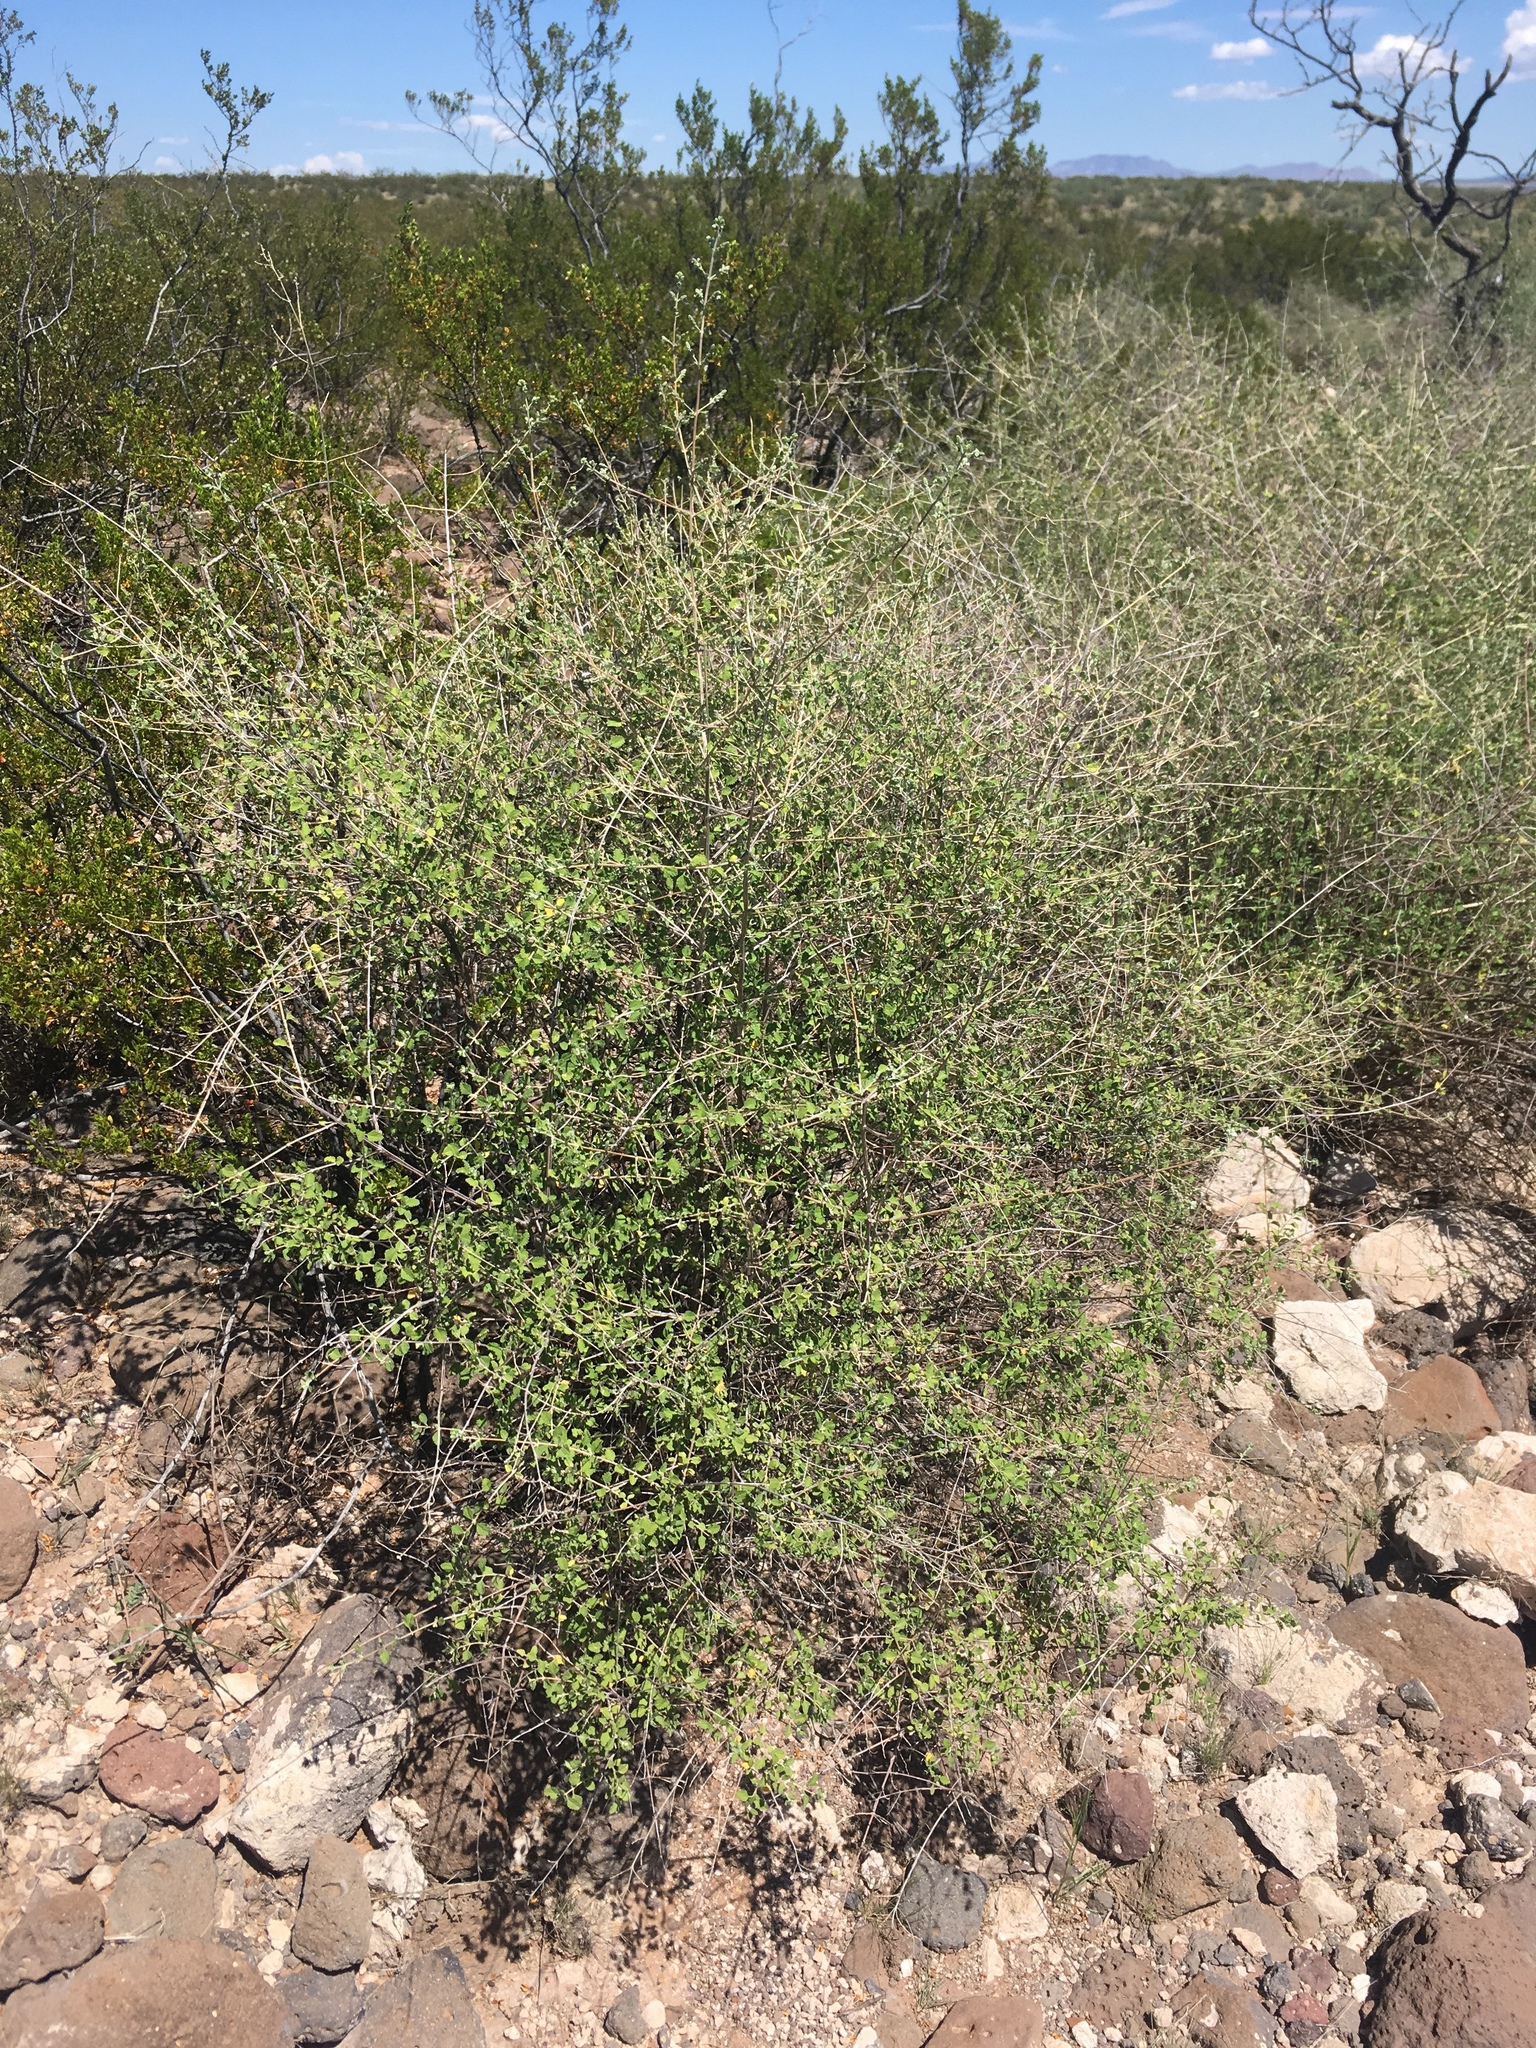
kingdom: Plantae
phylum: Tracheophyta
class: Magnoliopsida
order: Lamiales
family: Verbenaceae
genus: Aloysia
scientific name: Aloysia wrightii
